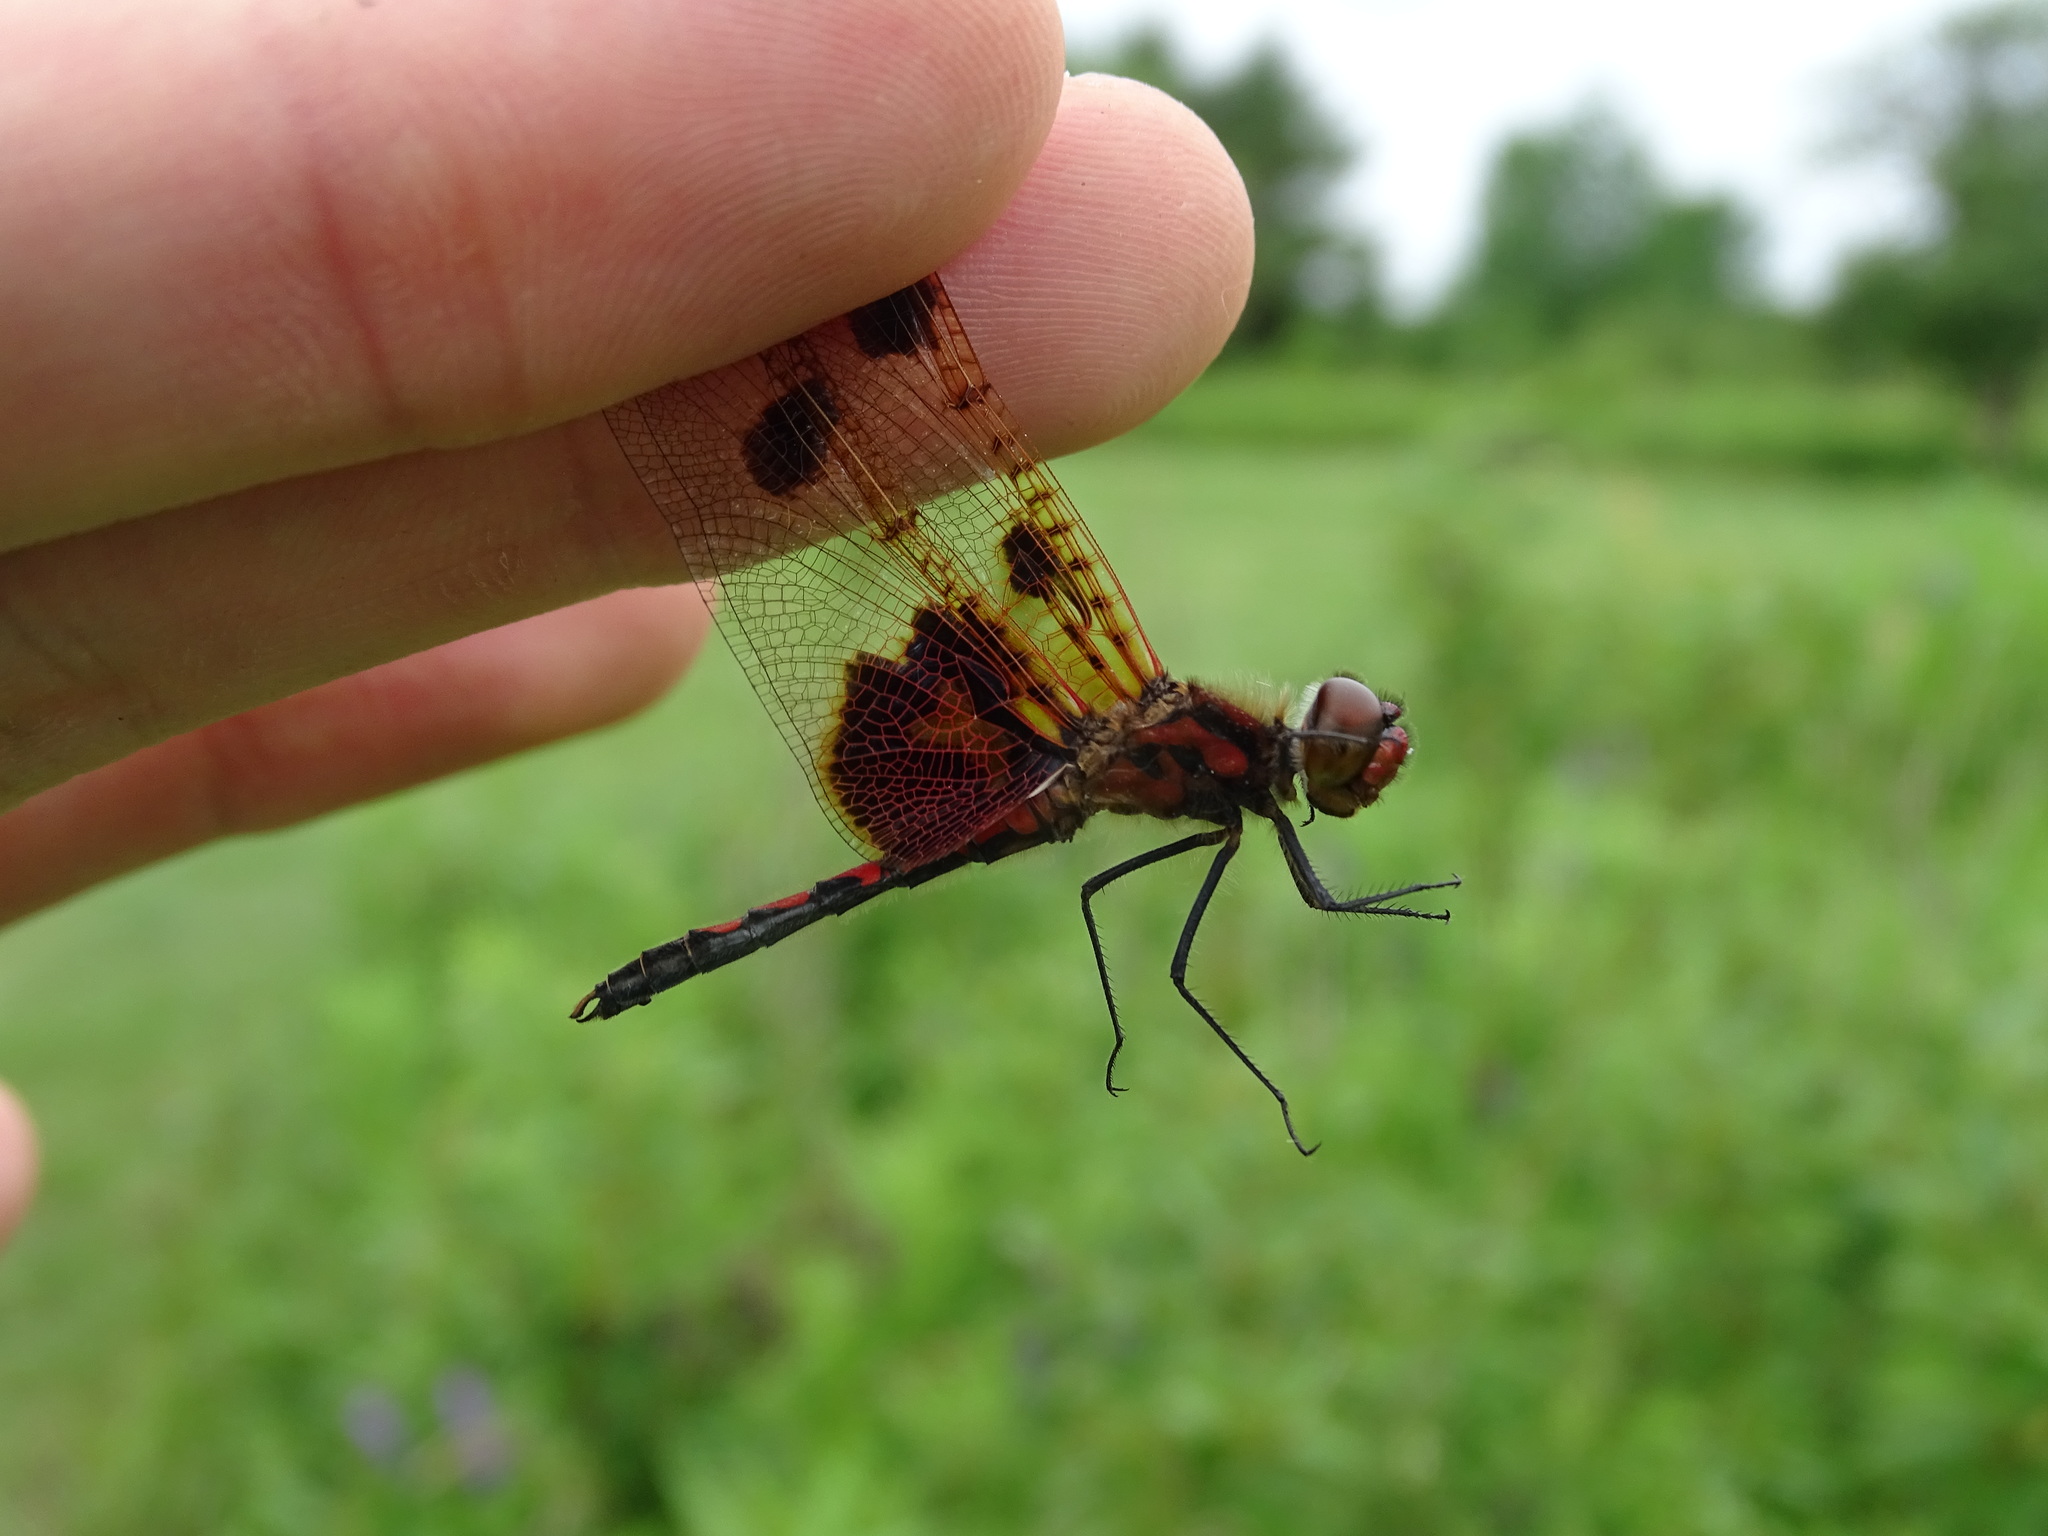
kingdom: Animalia
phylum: Arthropoda
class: Insecta
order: Odonata
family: Libellulidae
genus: Celithemis
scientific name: Celithemis elisa
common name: Calico pennant
